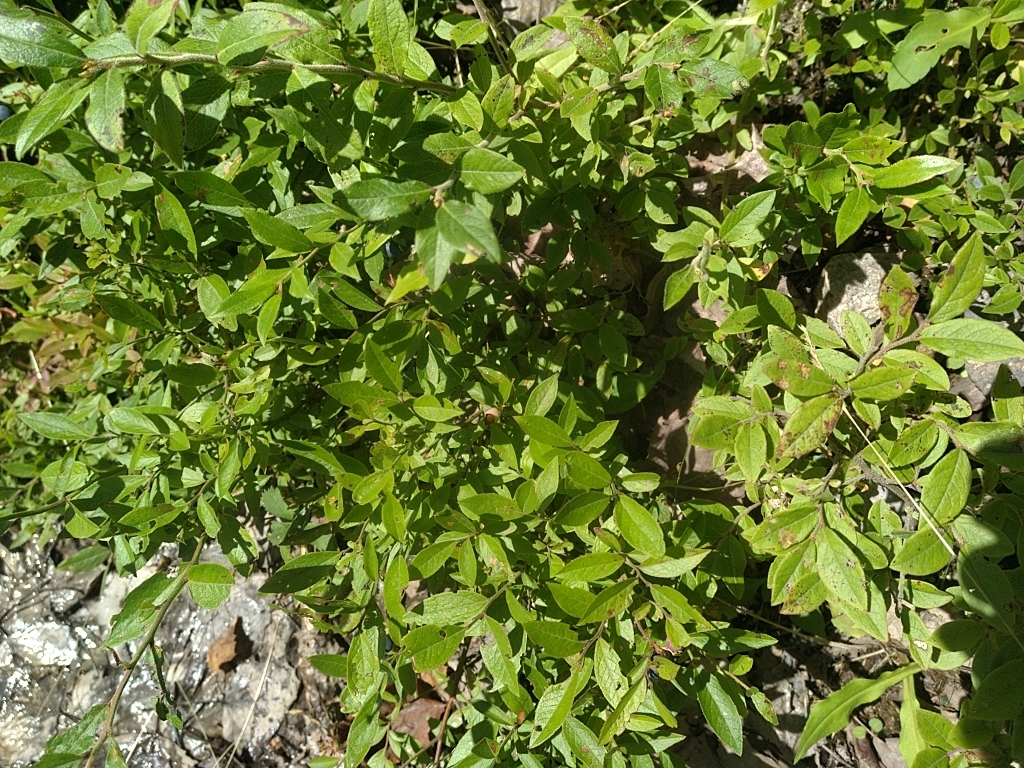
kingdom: Plantae
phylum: Tracheophyta
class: Magnoliopsida
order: Ericales
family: Ericaceae
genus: Vaccinium
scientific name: Vaccinium angustifolium
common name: Early lowbush blueberry
